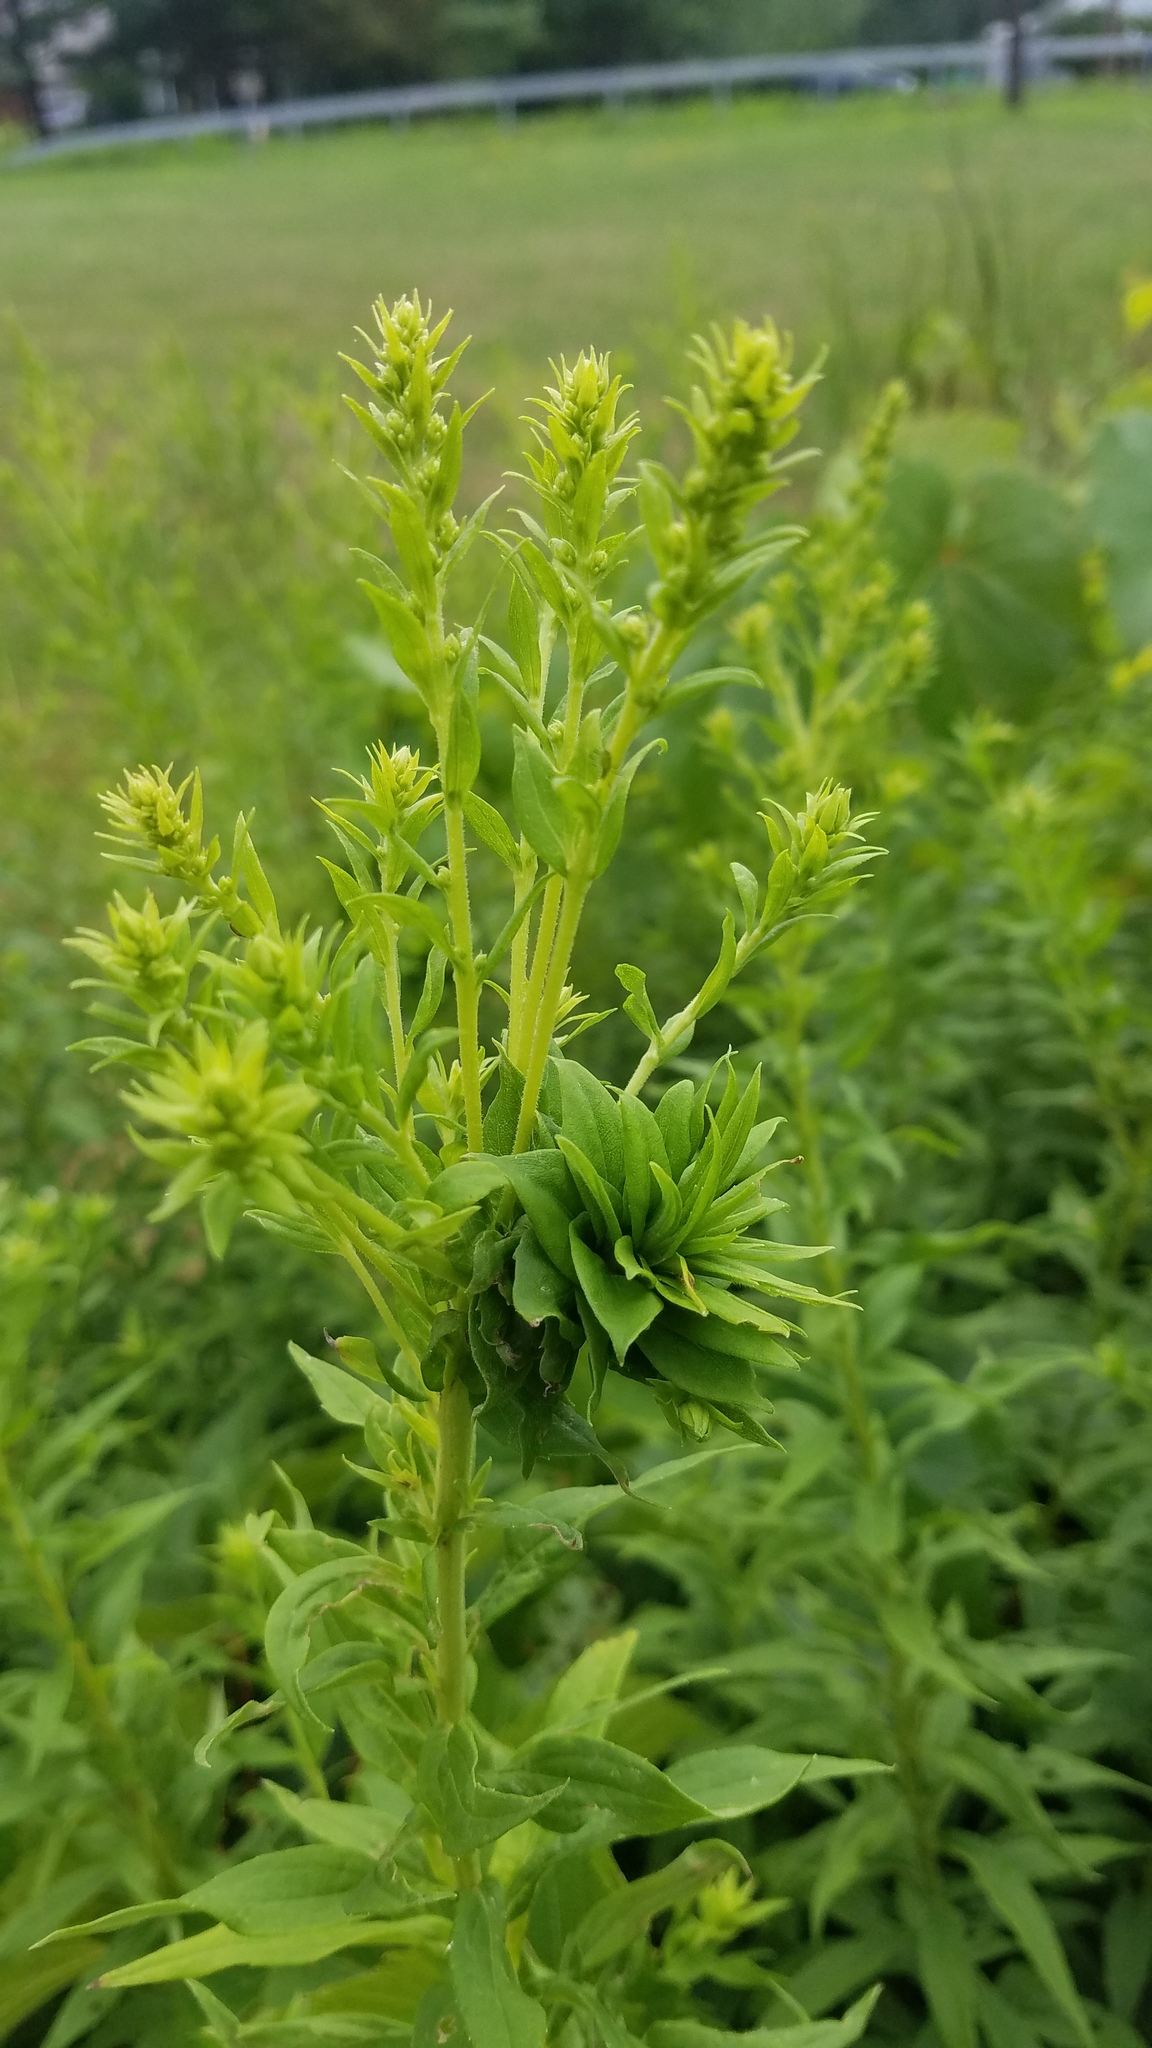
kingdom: Plantae
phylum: Tracheophyta
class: Magnoliopsida
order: Asterales
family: Asteraceae
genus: Solidago
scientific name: Solidago altissima
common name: Late goldenrod
